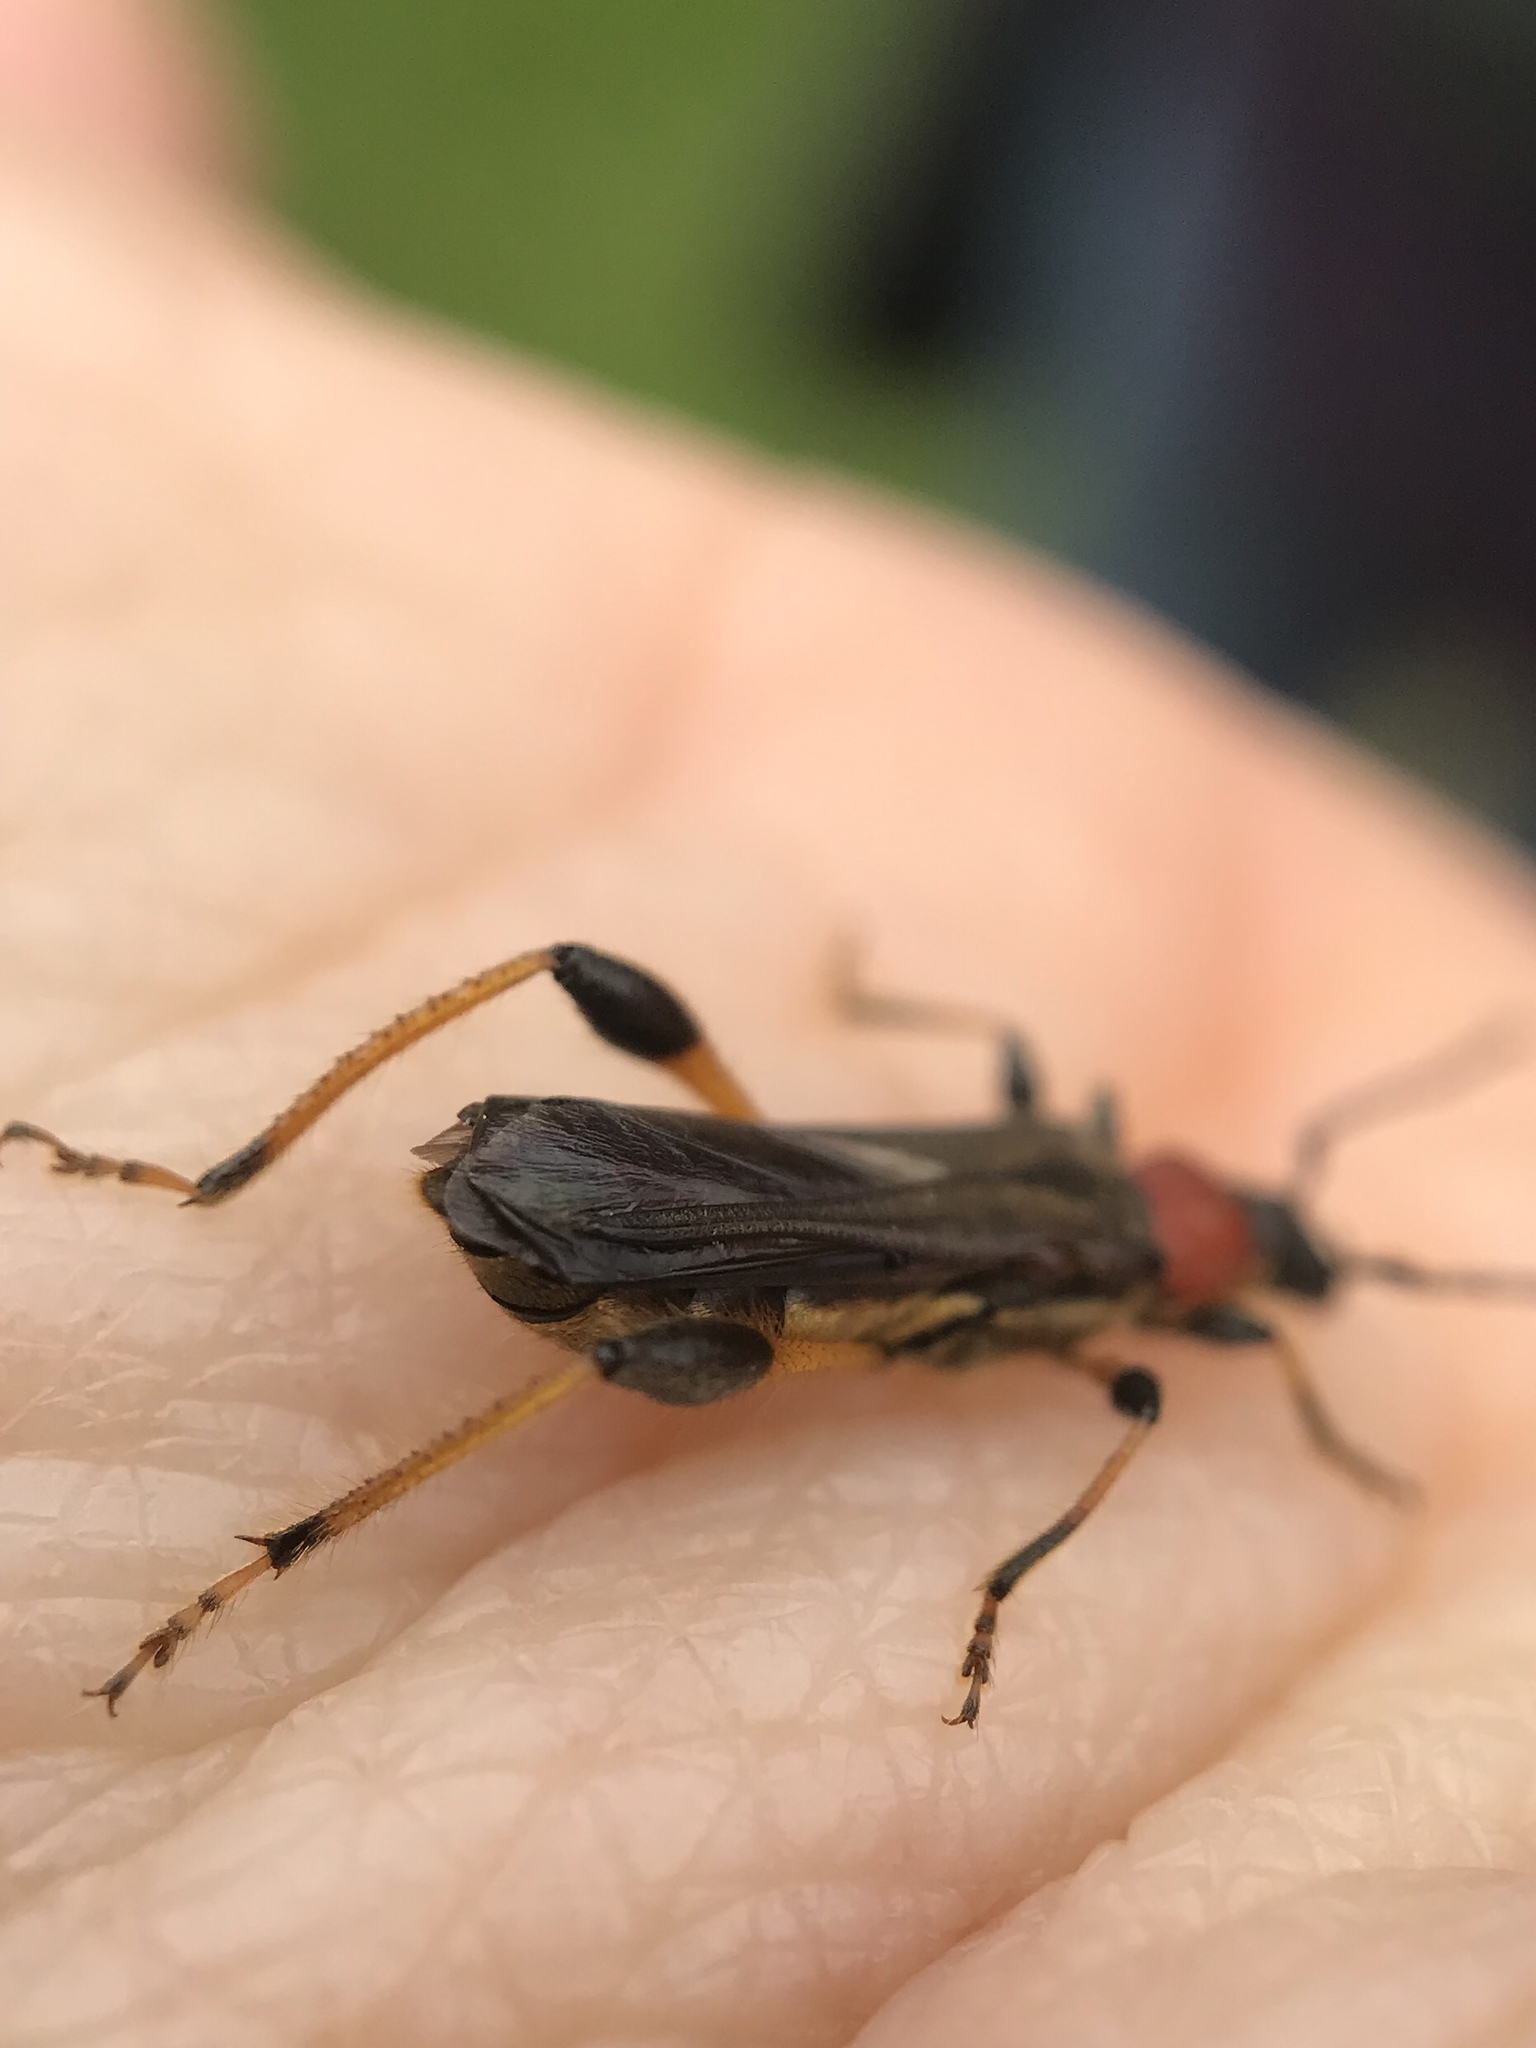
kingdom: Animalia
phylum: Arthropoda
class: Insecta
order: Coleoptera
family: Cerambycidae
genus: Callimoxys
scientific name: Callimoxys fuscipennis
